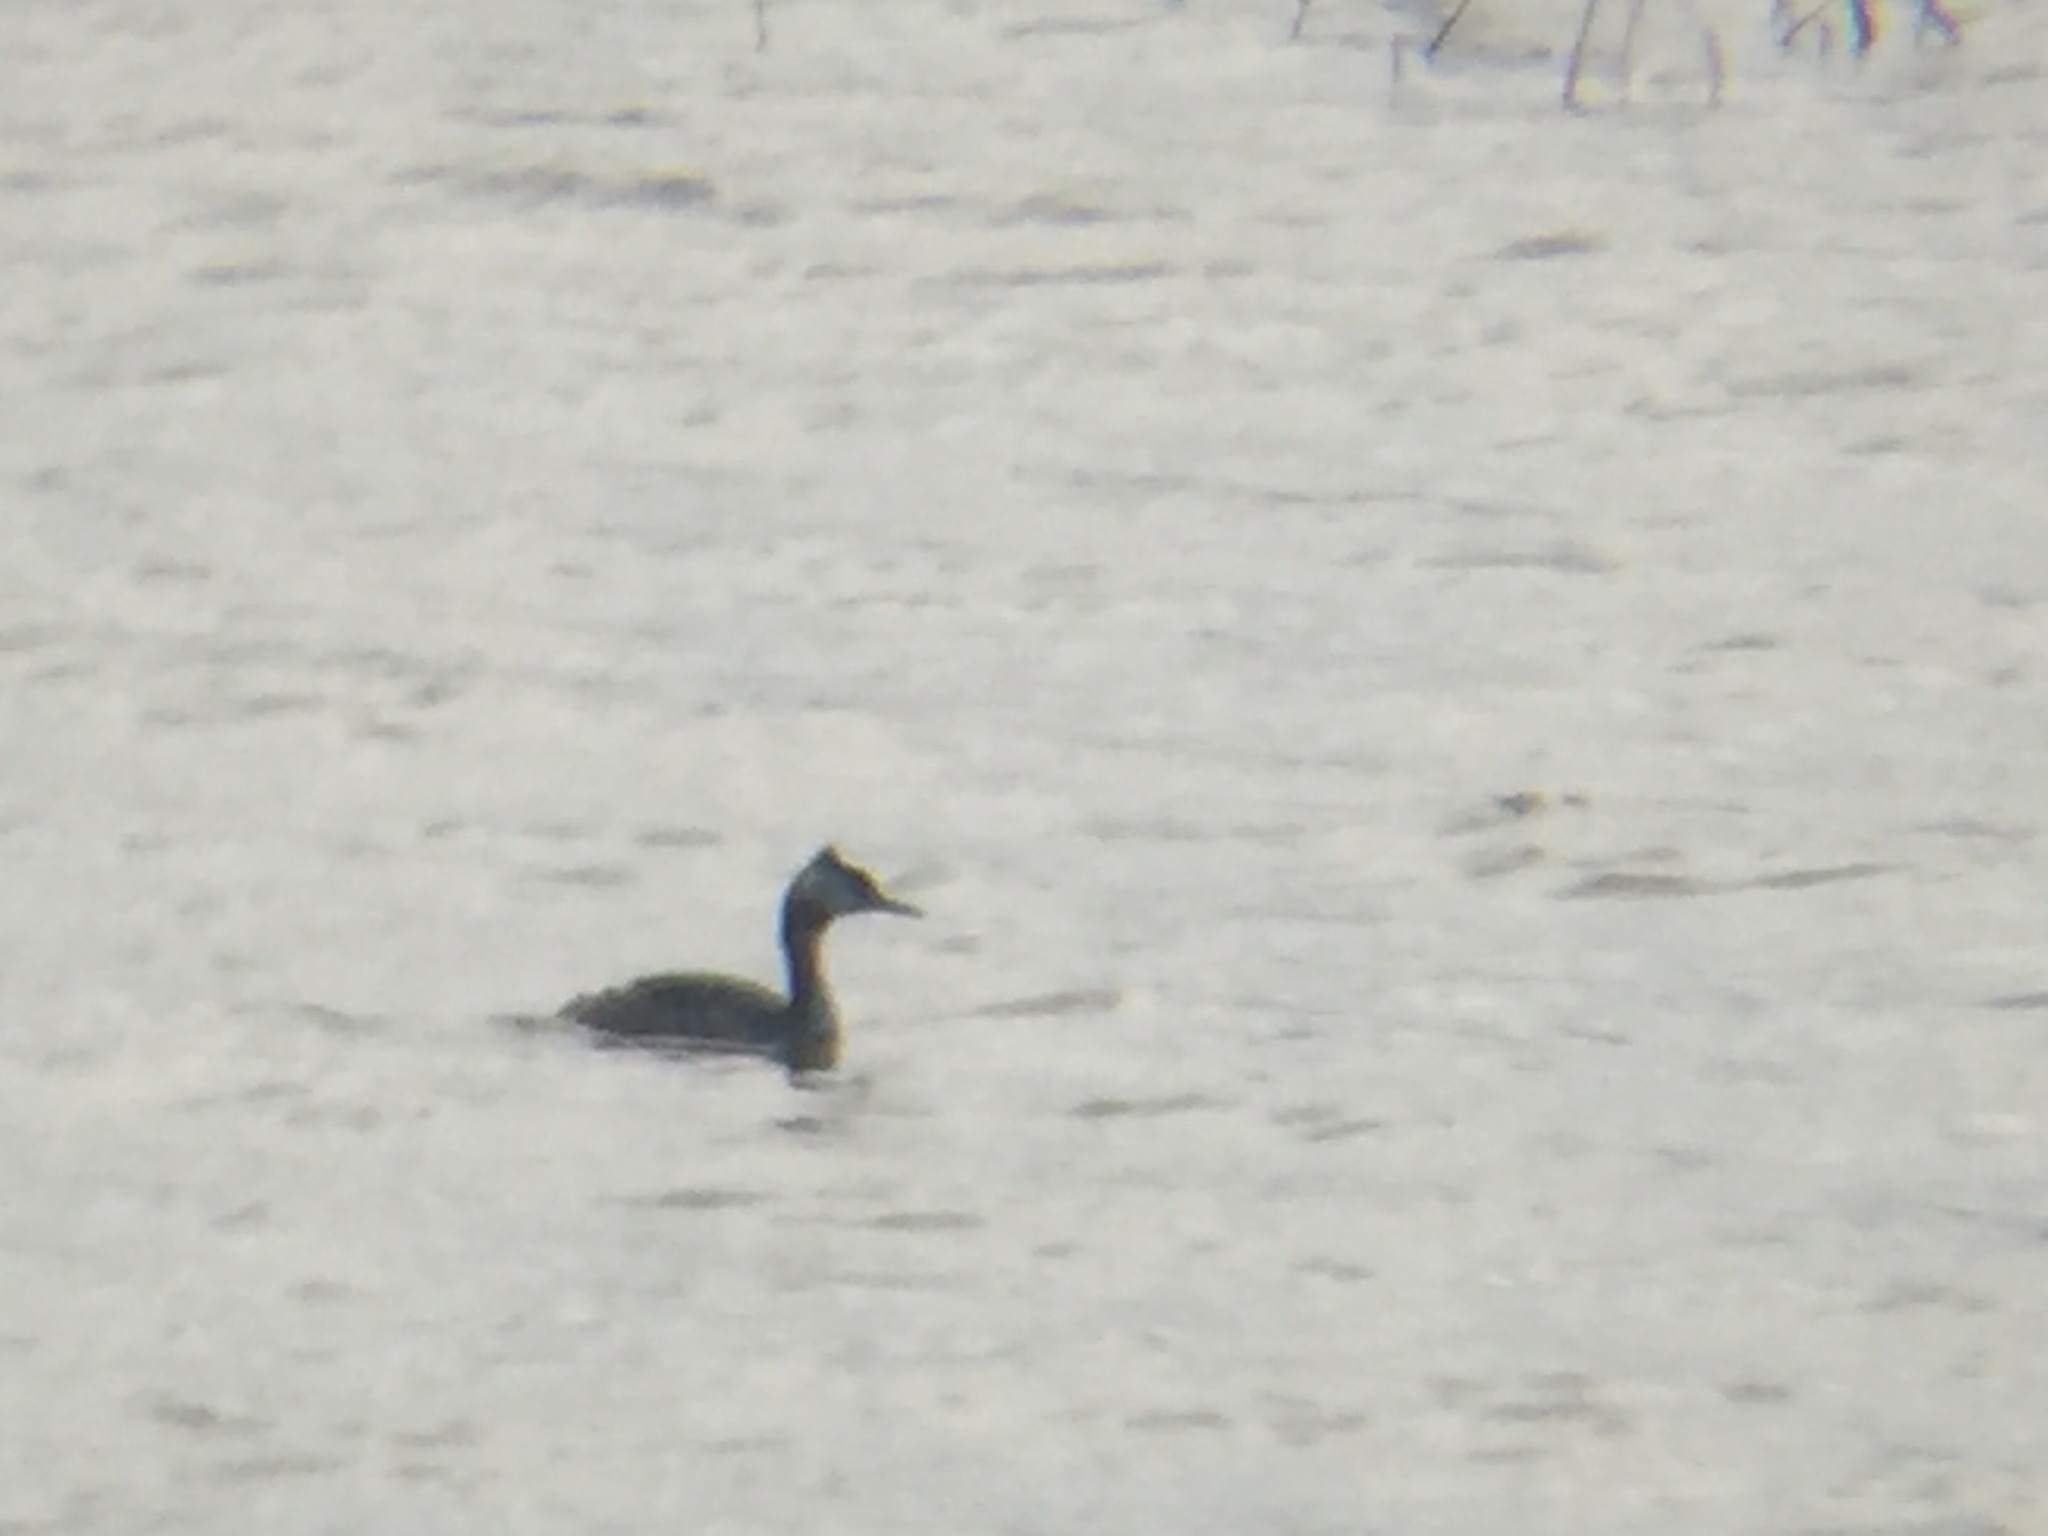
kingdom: Animalia
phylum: Chordata
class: Aves
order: Podicipediformes
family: Podicipedidae
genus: Podiceps
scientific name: Podiceps cristatus
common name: Great crested grebe
